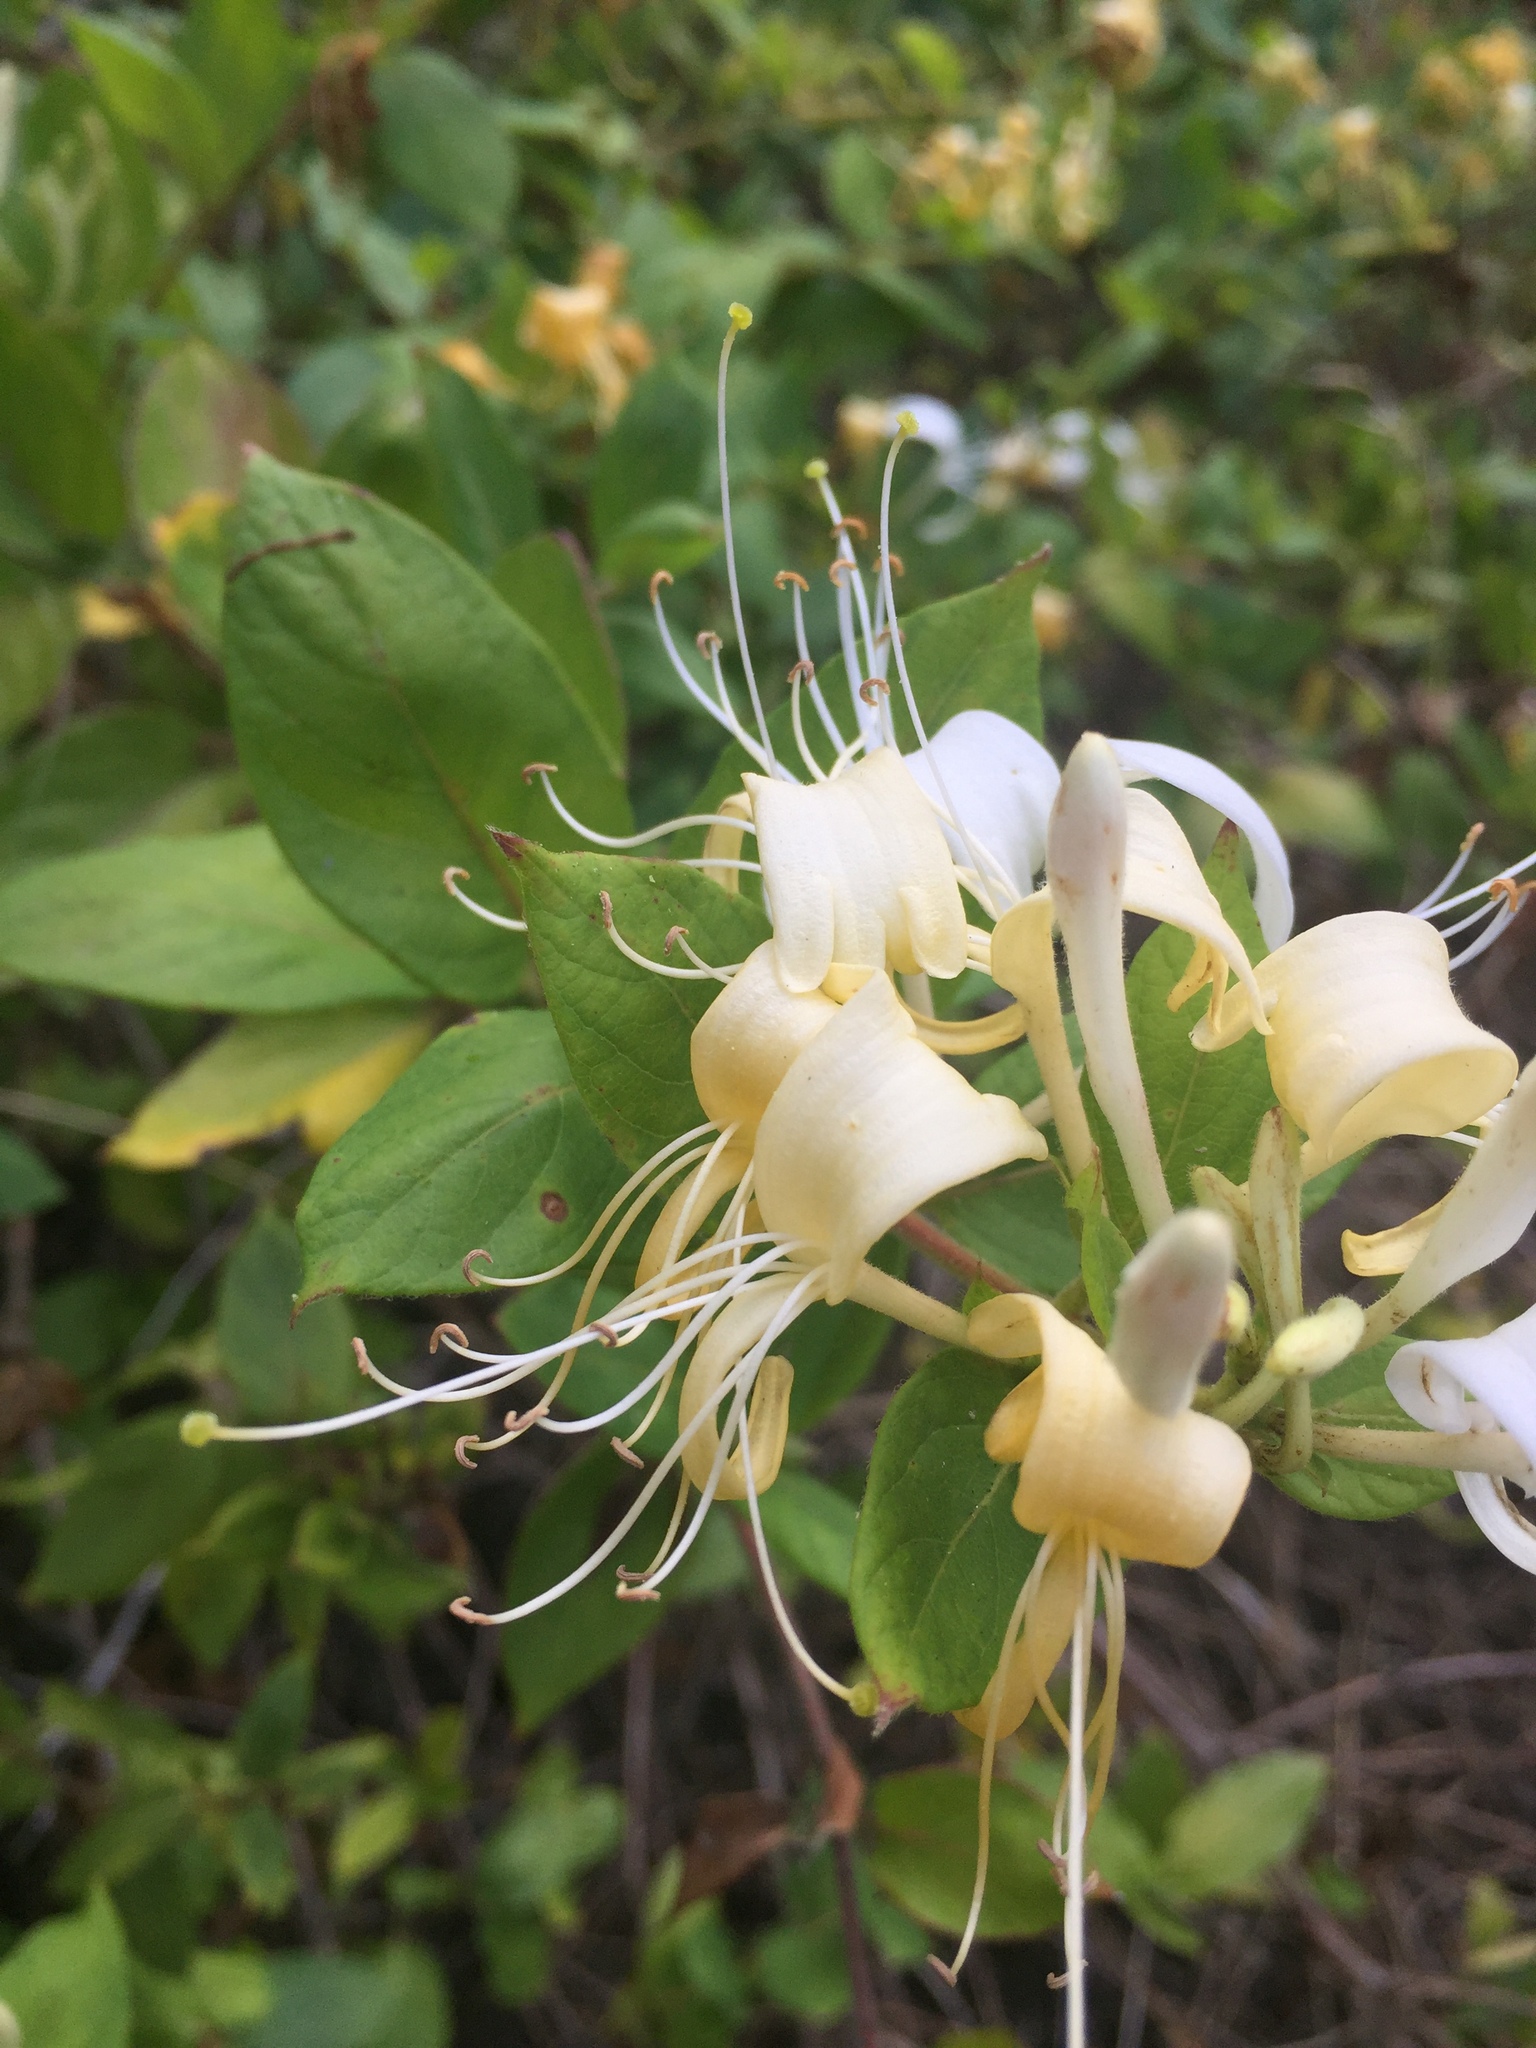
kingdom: Plantae
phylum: Tracheophyta
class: Magnoliopsida
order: Dipsacales
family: Caprifoliaceae
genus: Lonicera
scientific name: Lonicera japonica
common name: Japanese honeysuckle
